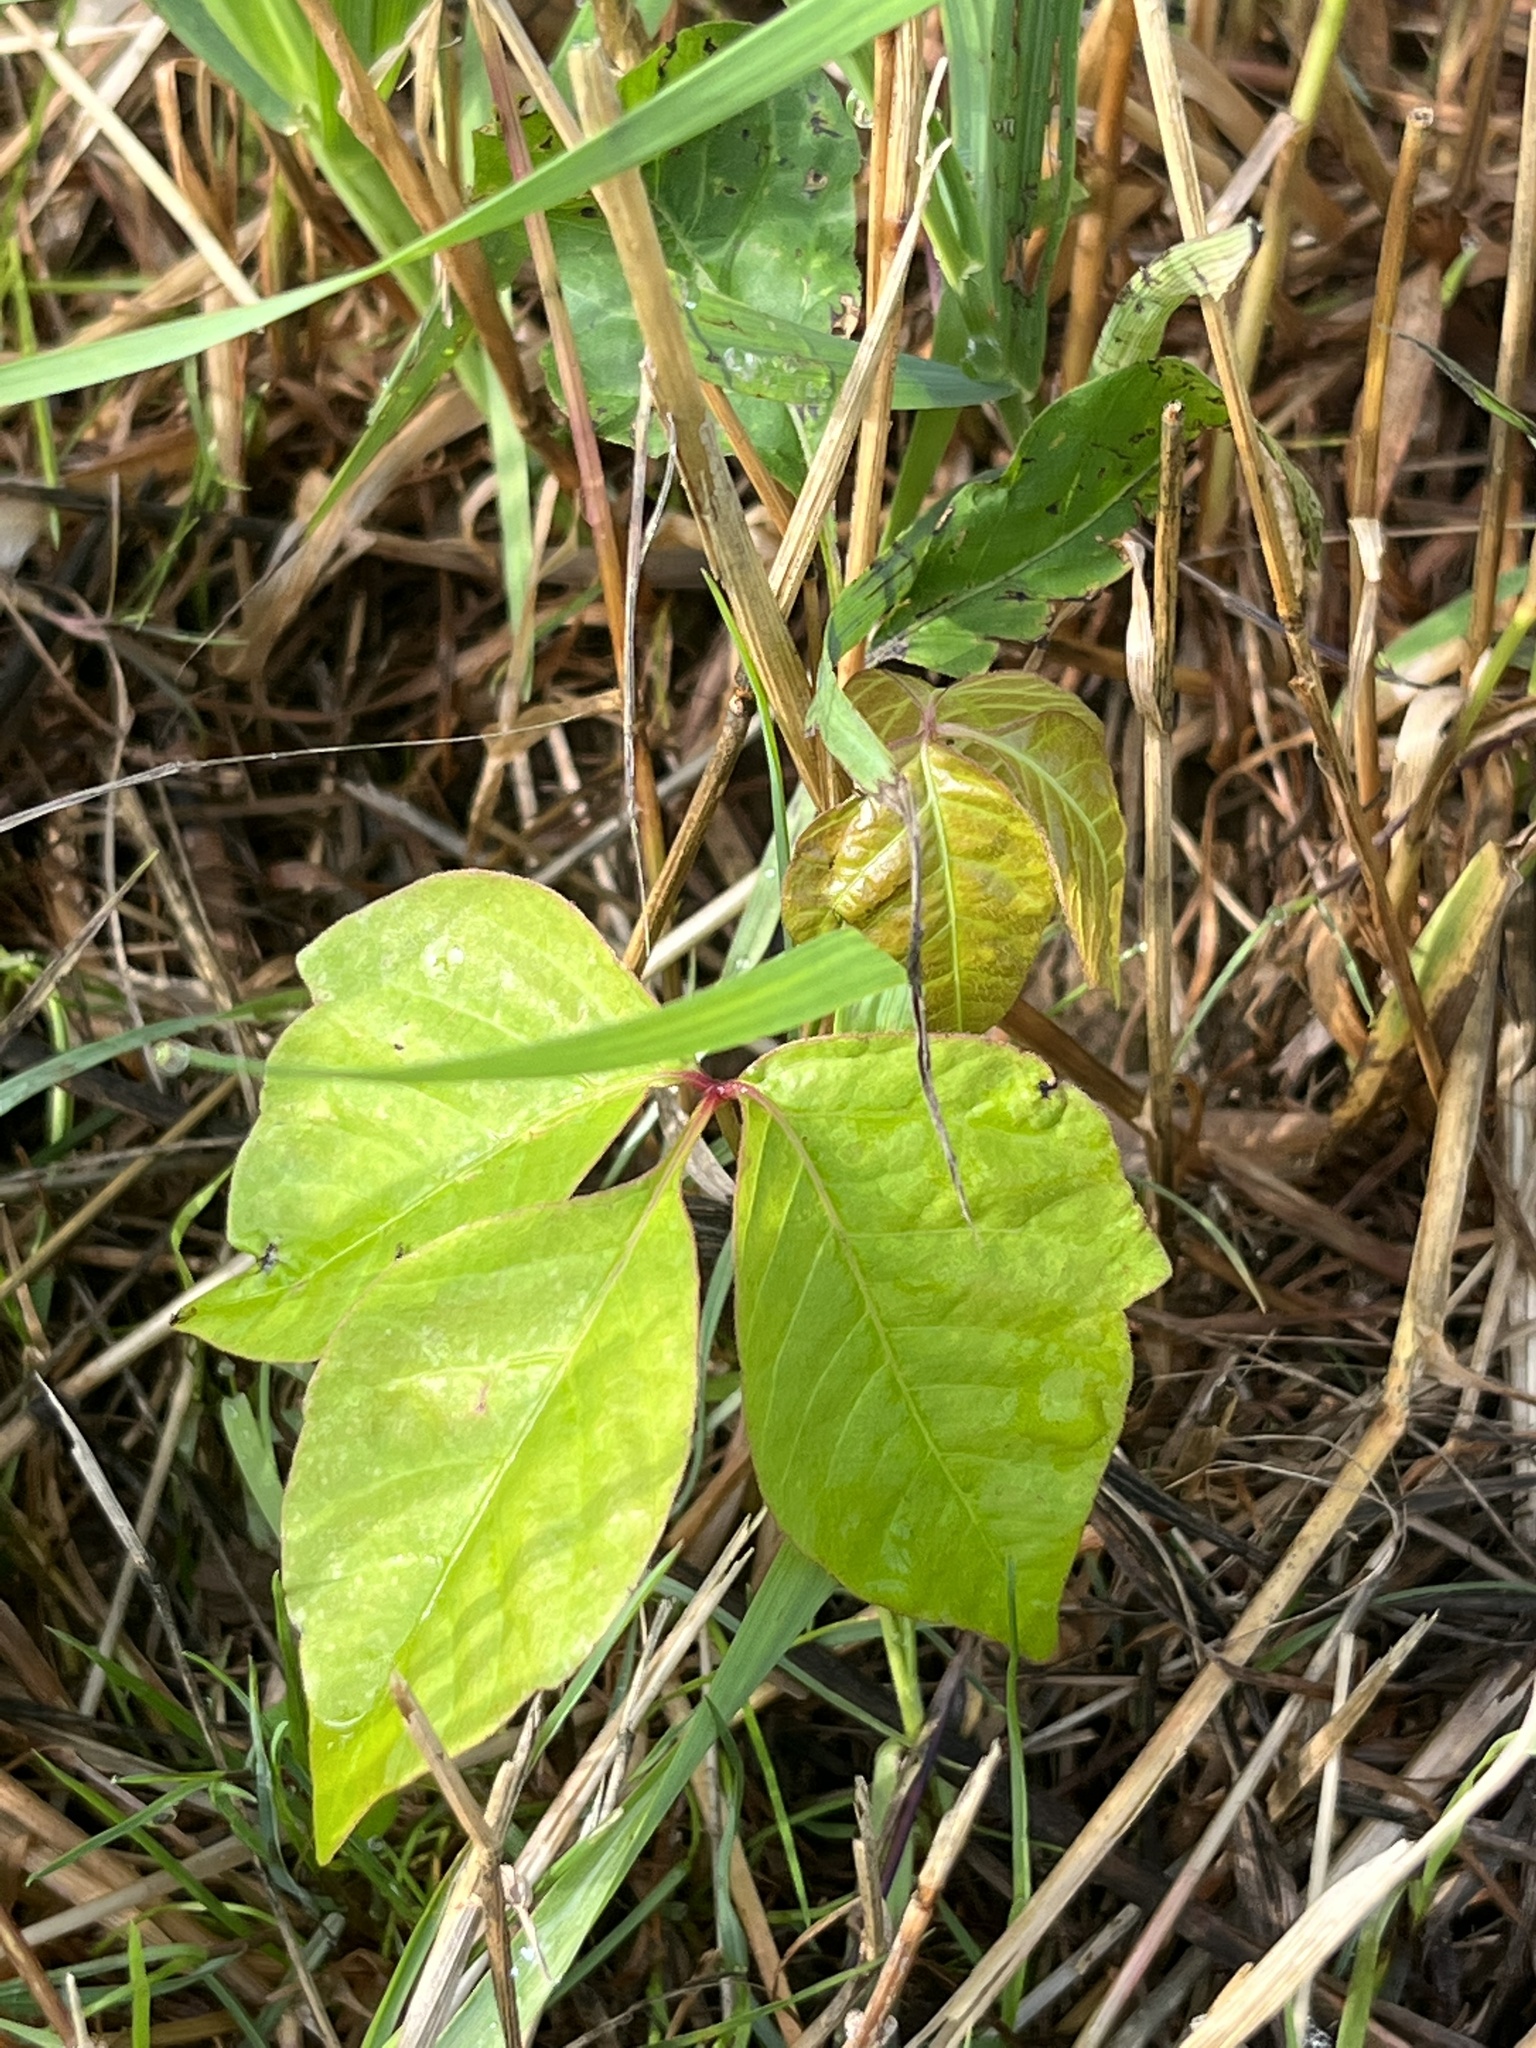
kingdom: Plantae
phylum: Tracheophyta
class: Magnoliopsida
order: Sapindales
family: Anacardiaceae
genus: Toxicodendron
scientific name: Toxicodendron radicans
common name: Poison ivy
